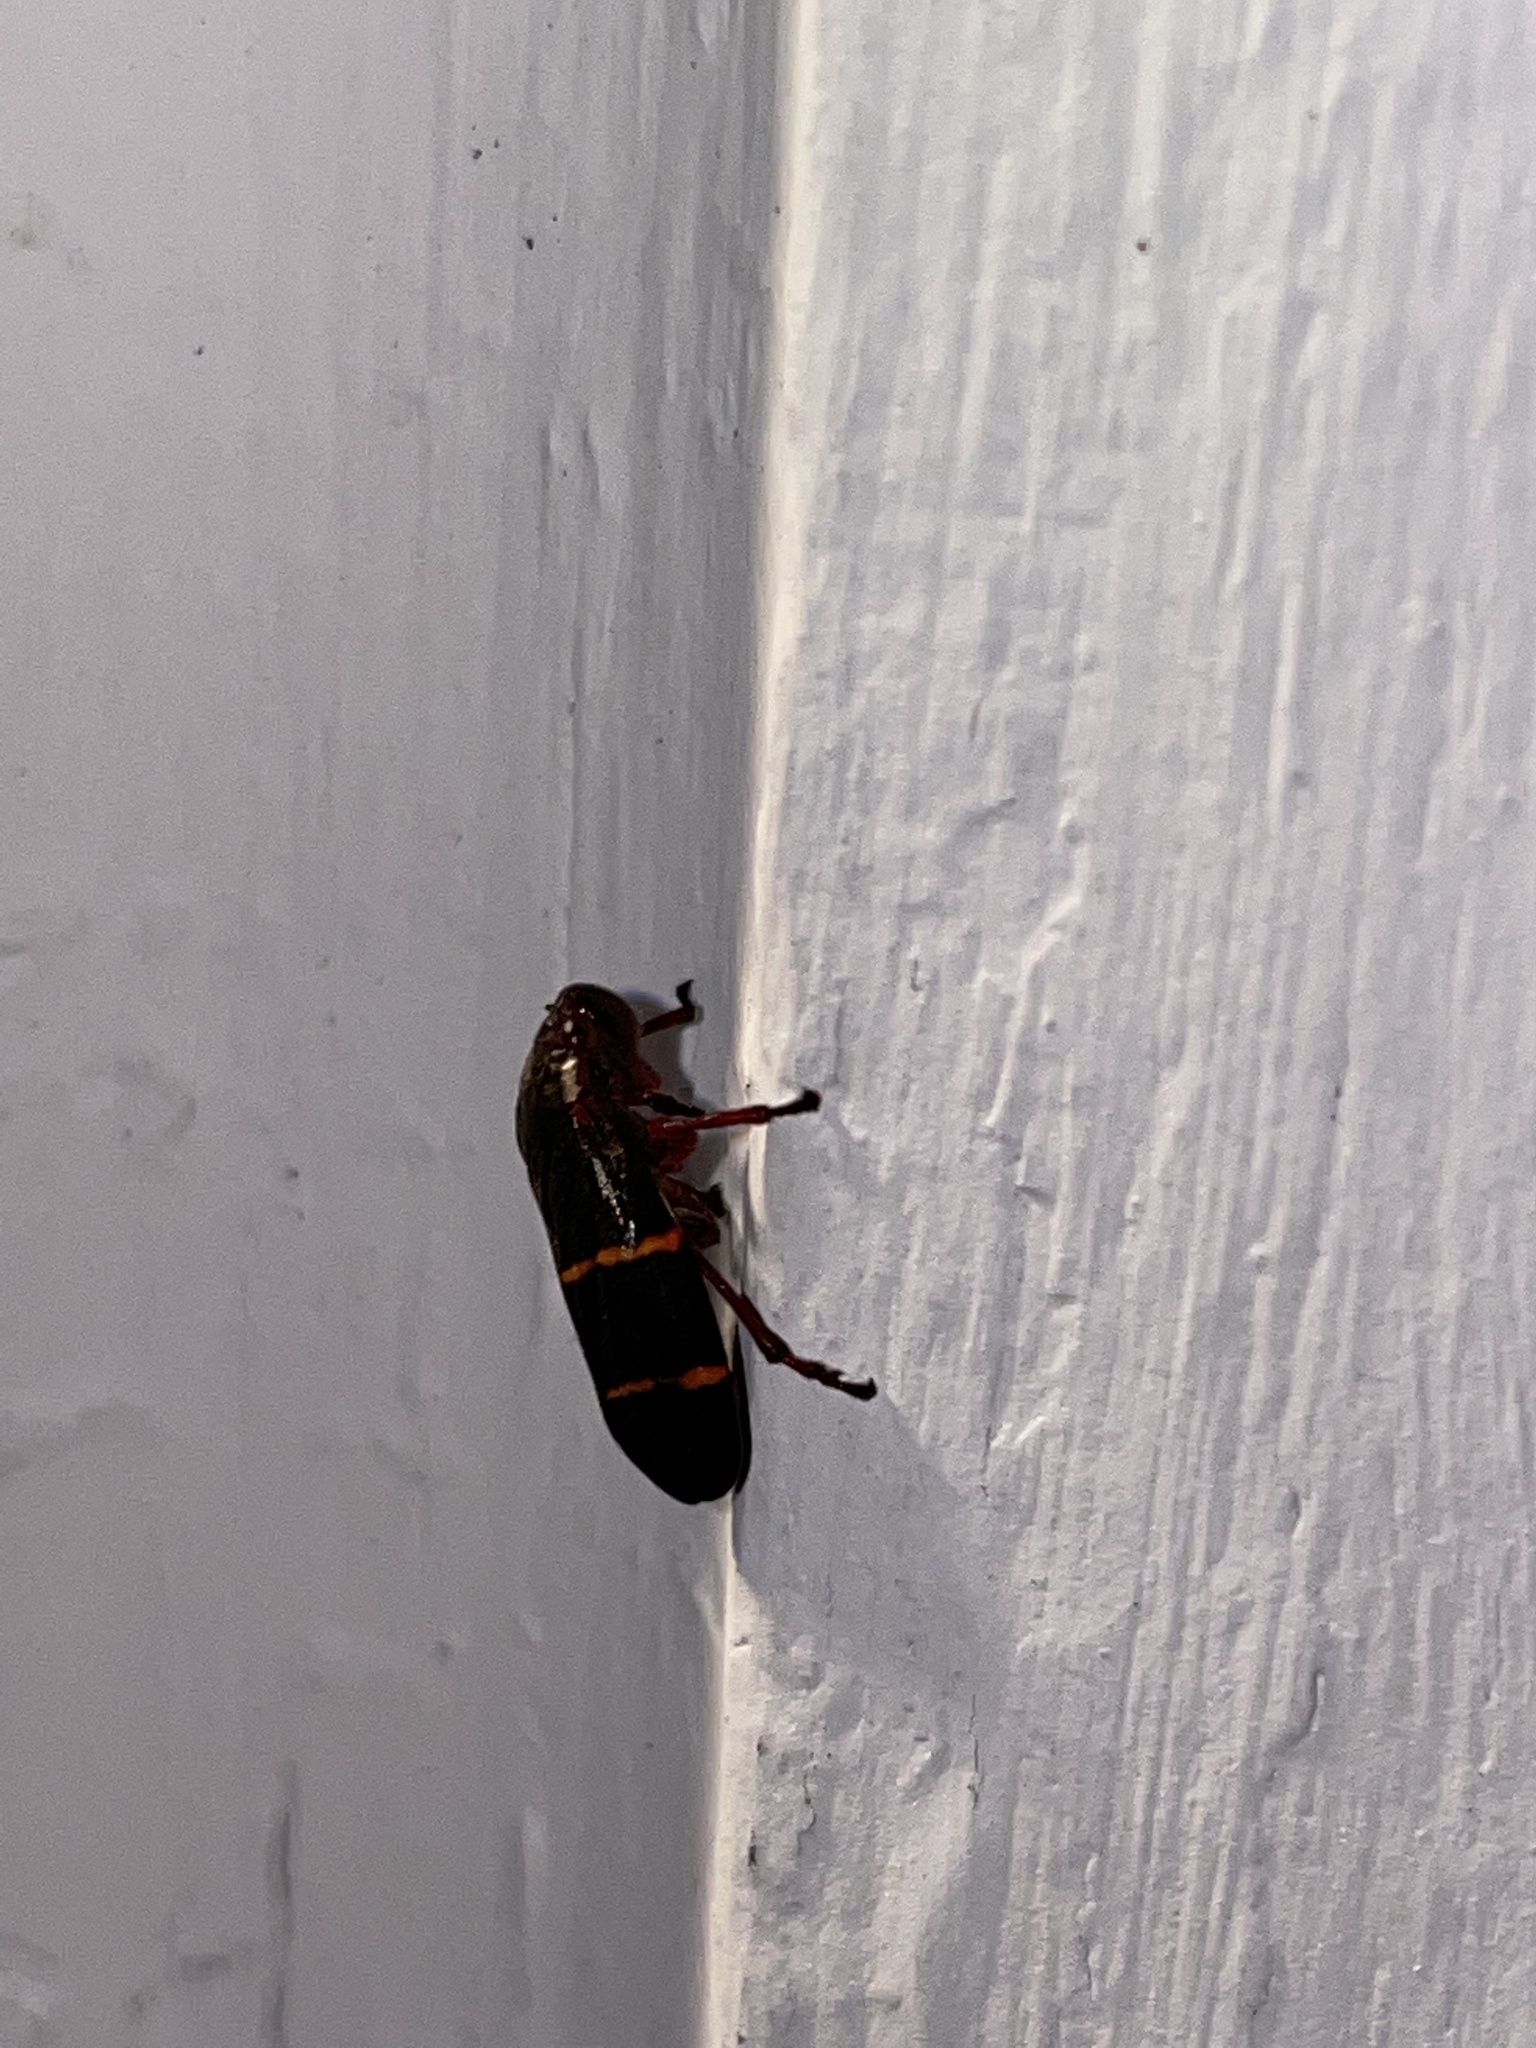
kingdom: Animalia
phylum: Arthropoda
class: Insecta
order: Hemiptera
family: Cercopidae
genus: Prosapia
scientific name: Prosapia bicincta
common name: Twolined spittlebug
